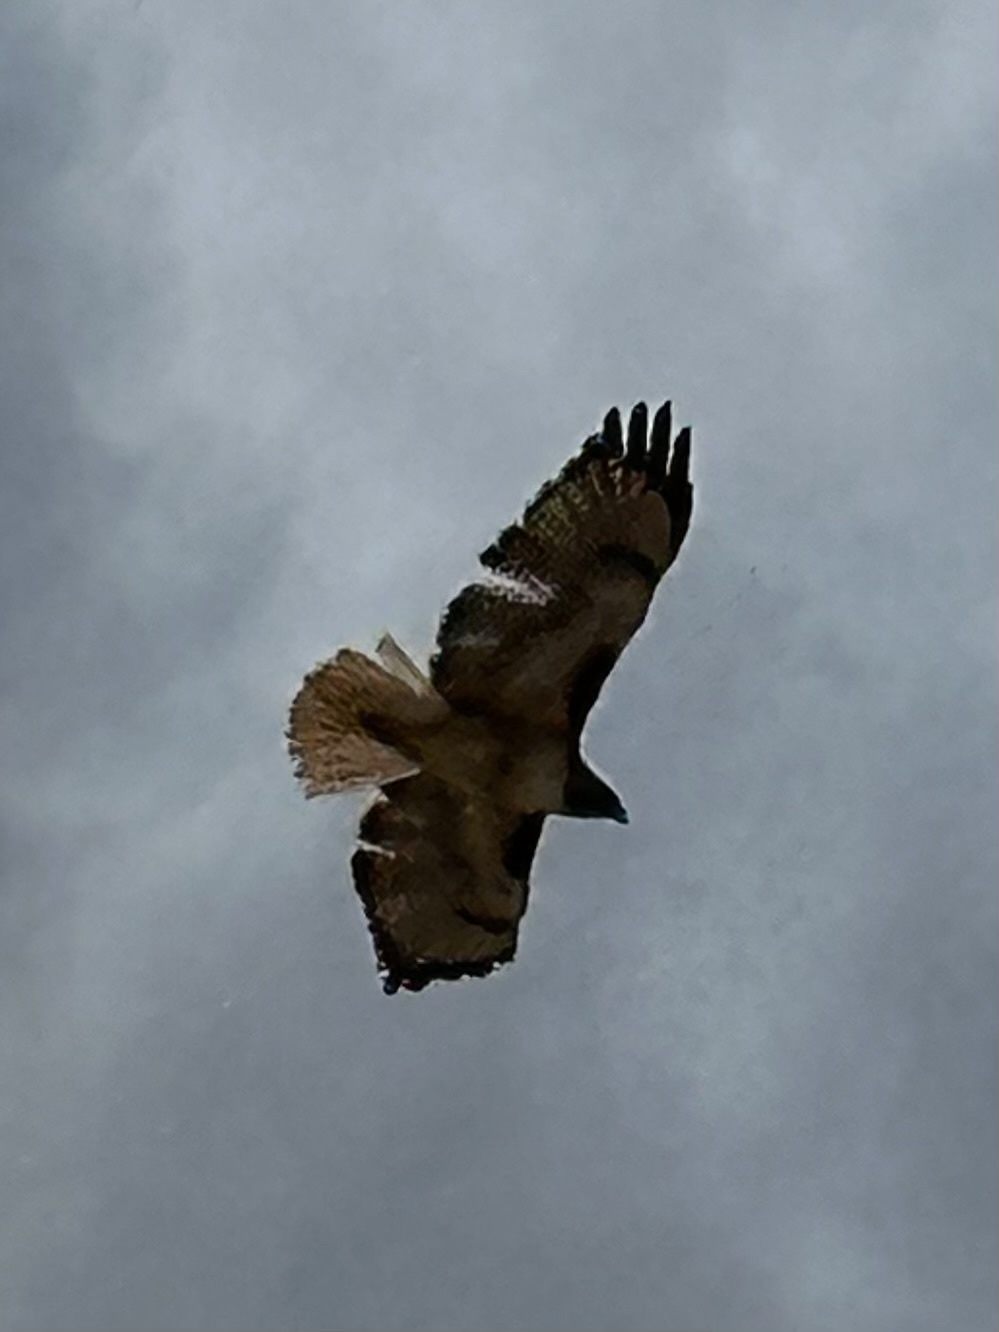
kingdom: Animalia
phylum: Chordata
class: Aves
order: Accipitriformes
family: Accipitridae
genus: Buteo
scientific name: Buteo jamaicensis
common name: Red-tailed hawk
